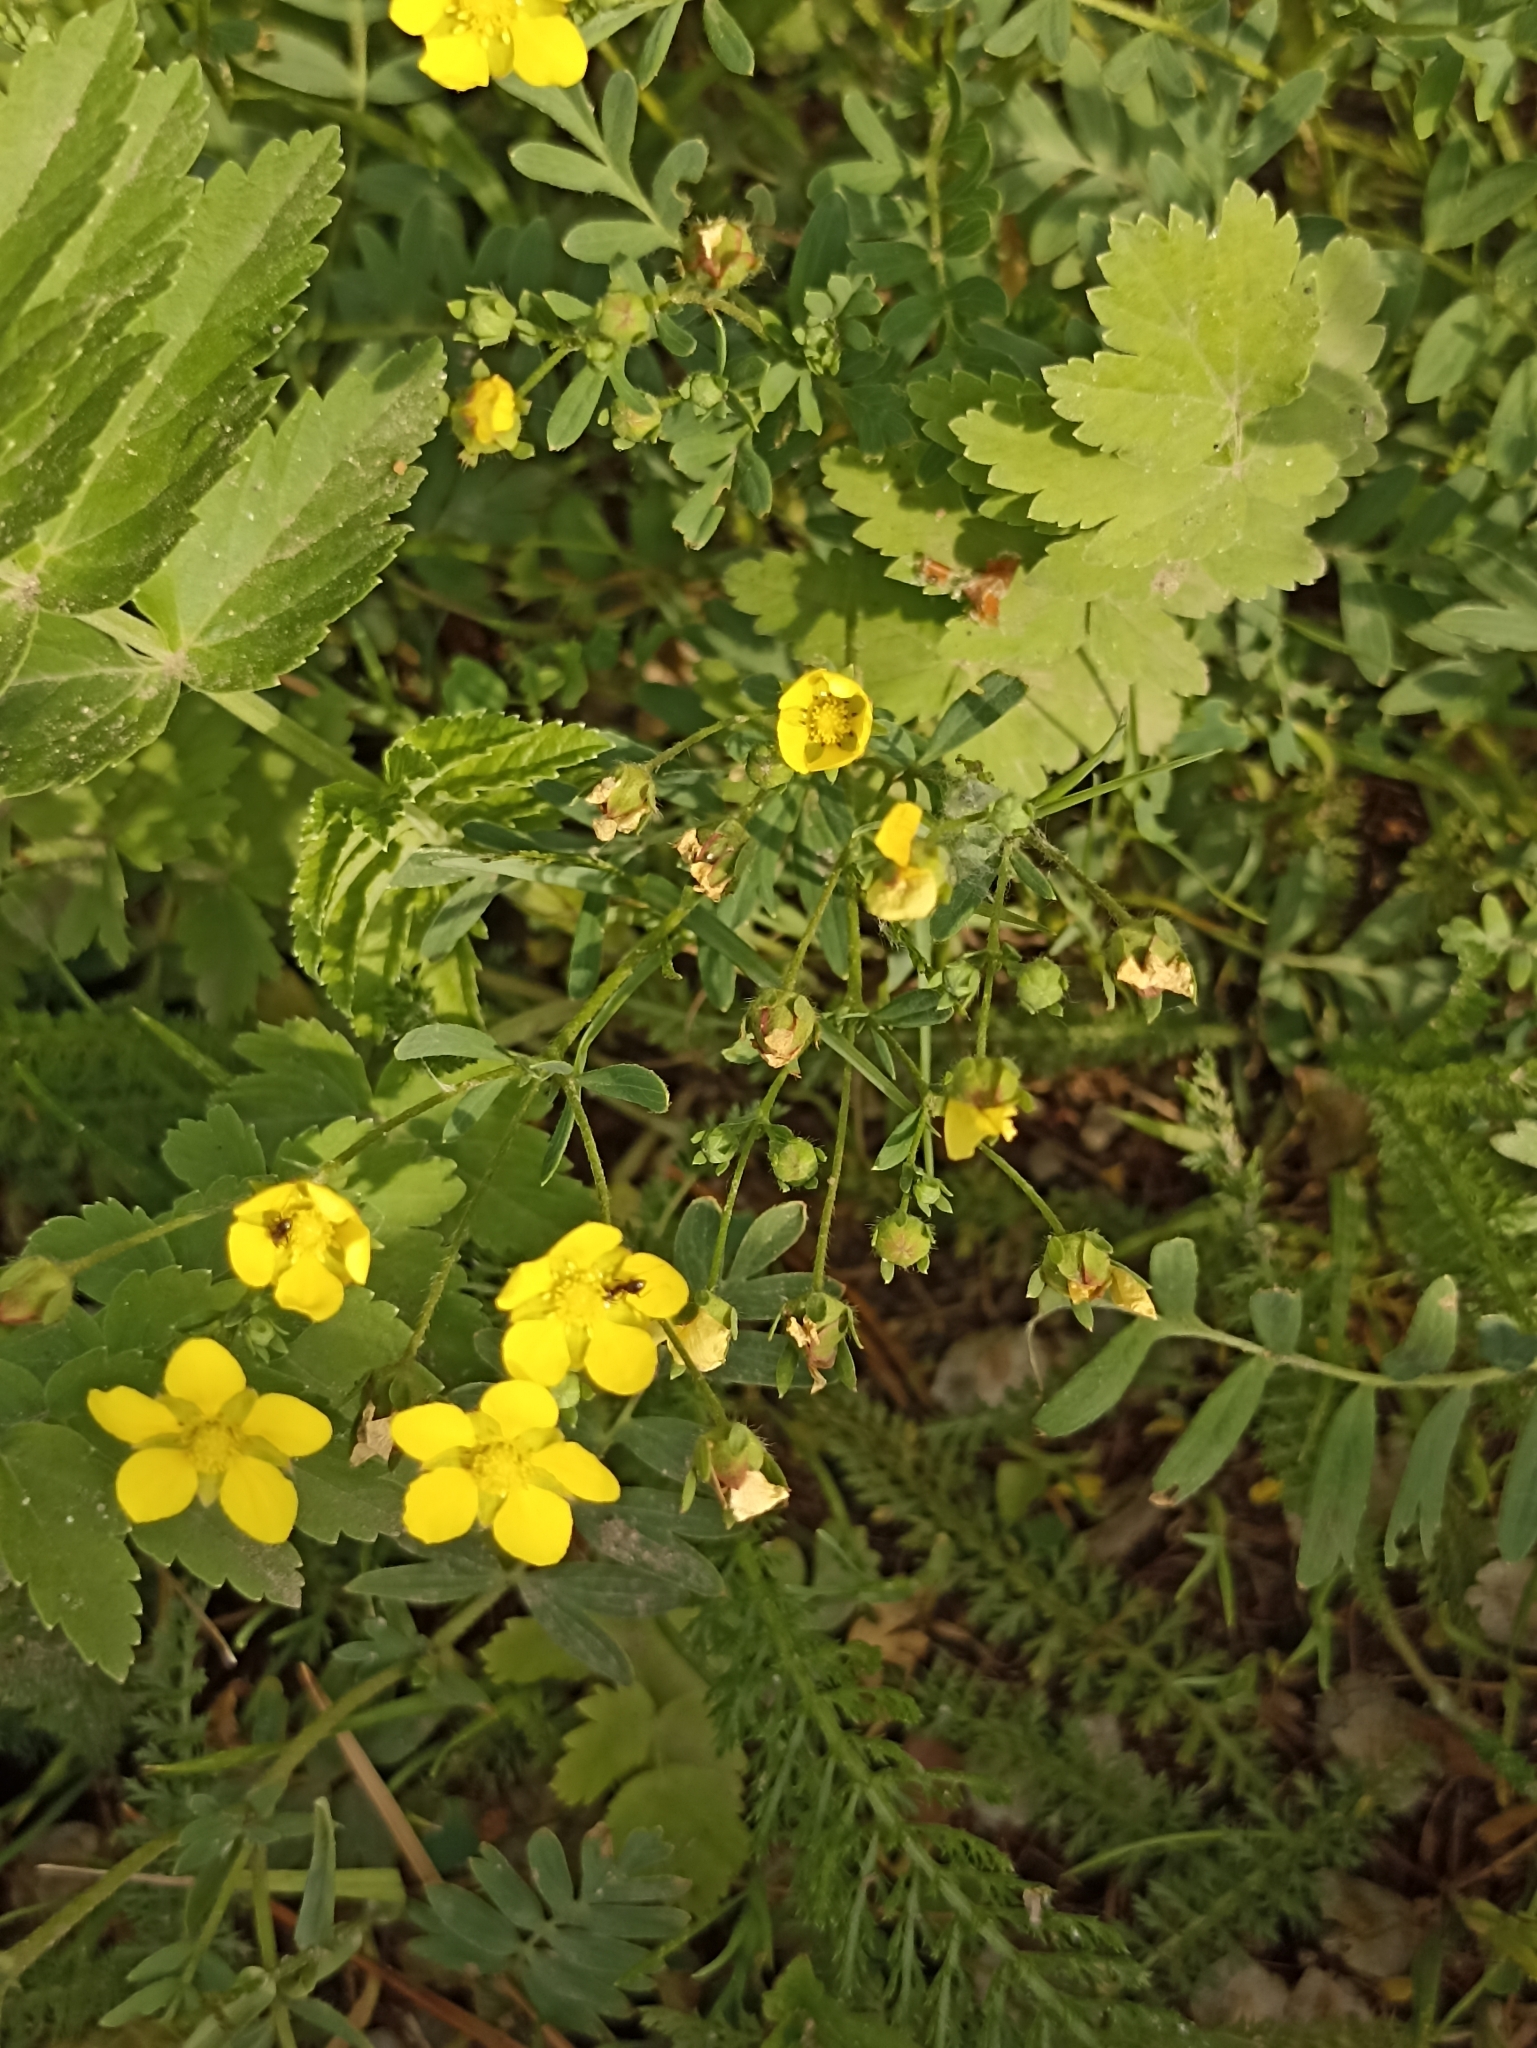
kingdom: Plantae
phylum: Tracheophyta
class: Magnoliopsida
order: Rosales
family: Rosaceae
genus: Sibbaldianthe
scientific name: Sibbaldianthe bifurca
